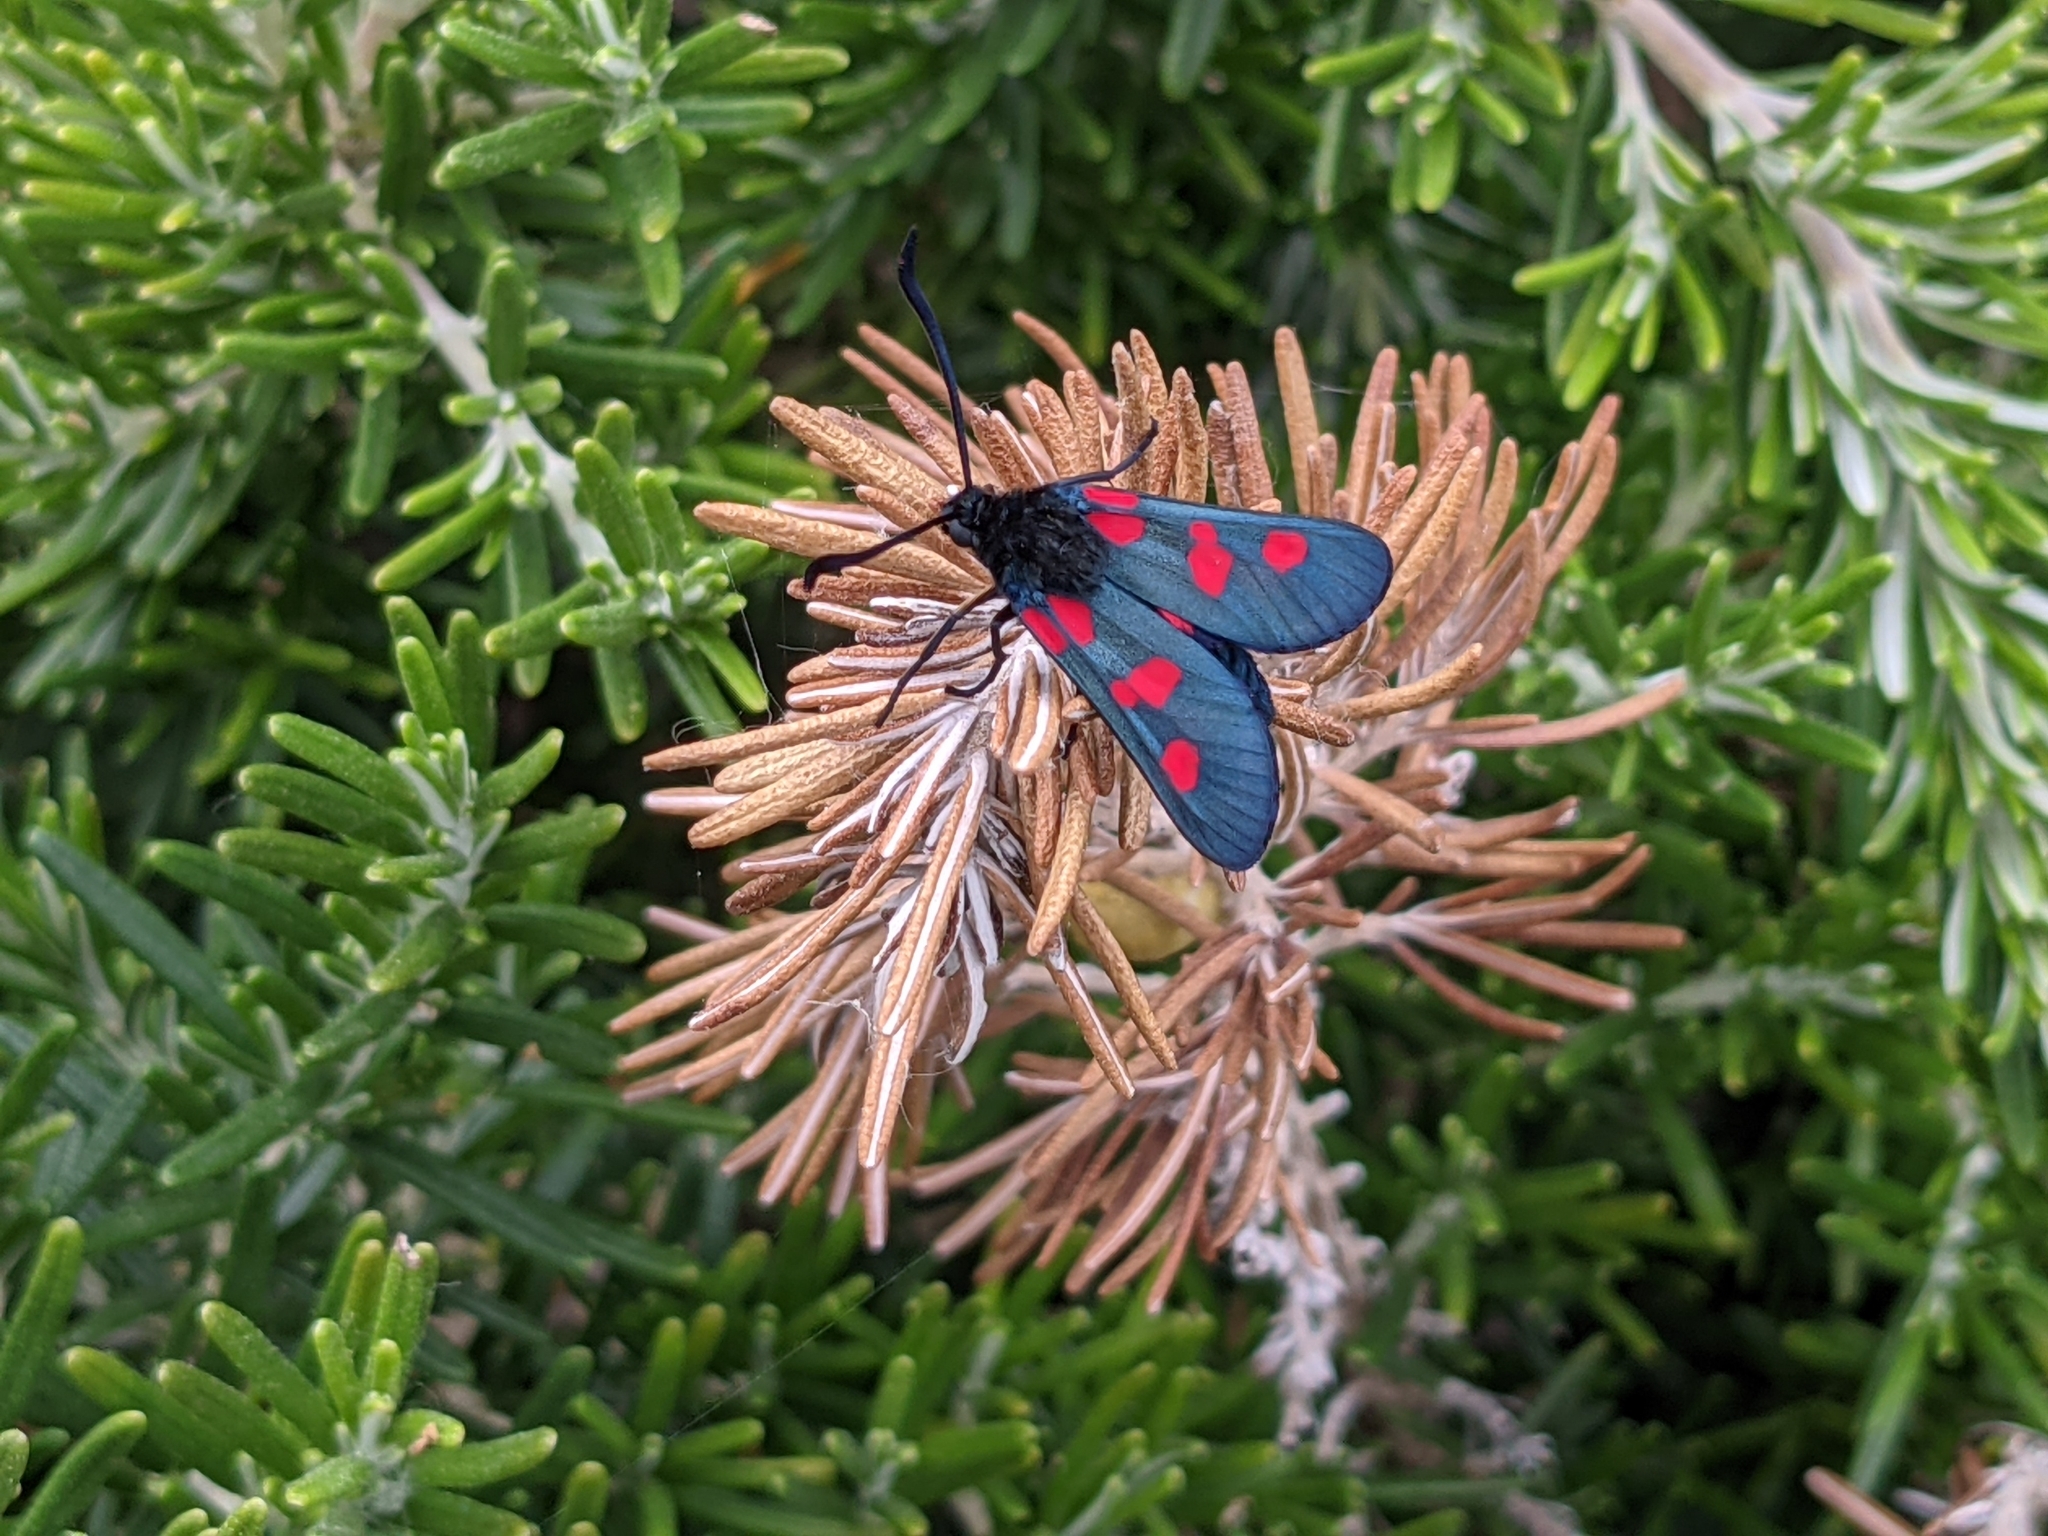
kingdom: Animalia
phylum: Arthropoda
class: Insecta
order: Lepidoptera
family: Zygaenidae
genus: Zygaena
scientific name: Zygaena trifolii
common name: Five-spot burnet
